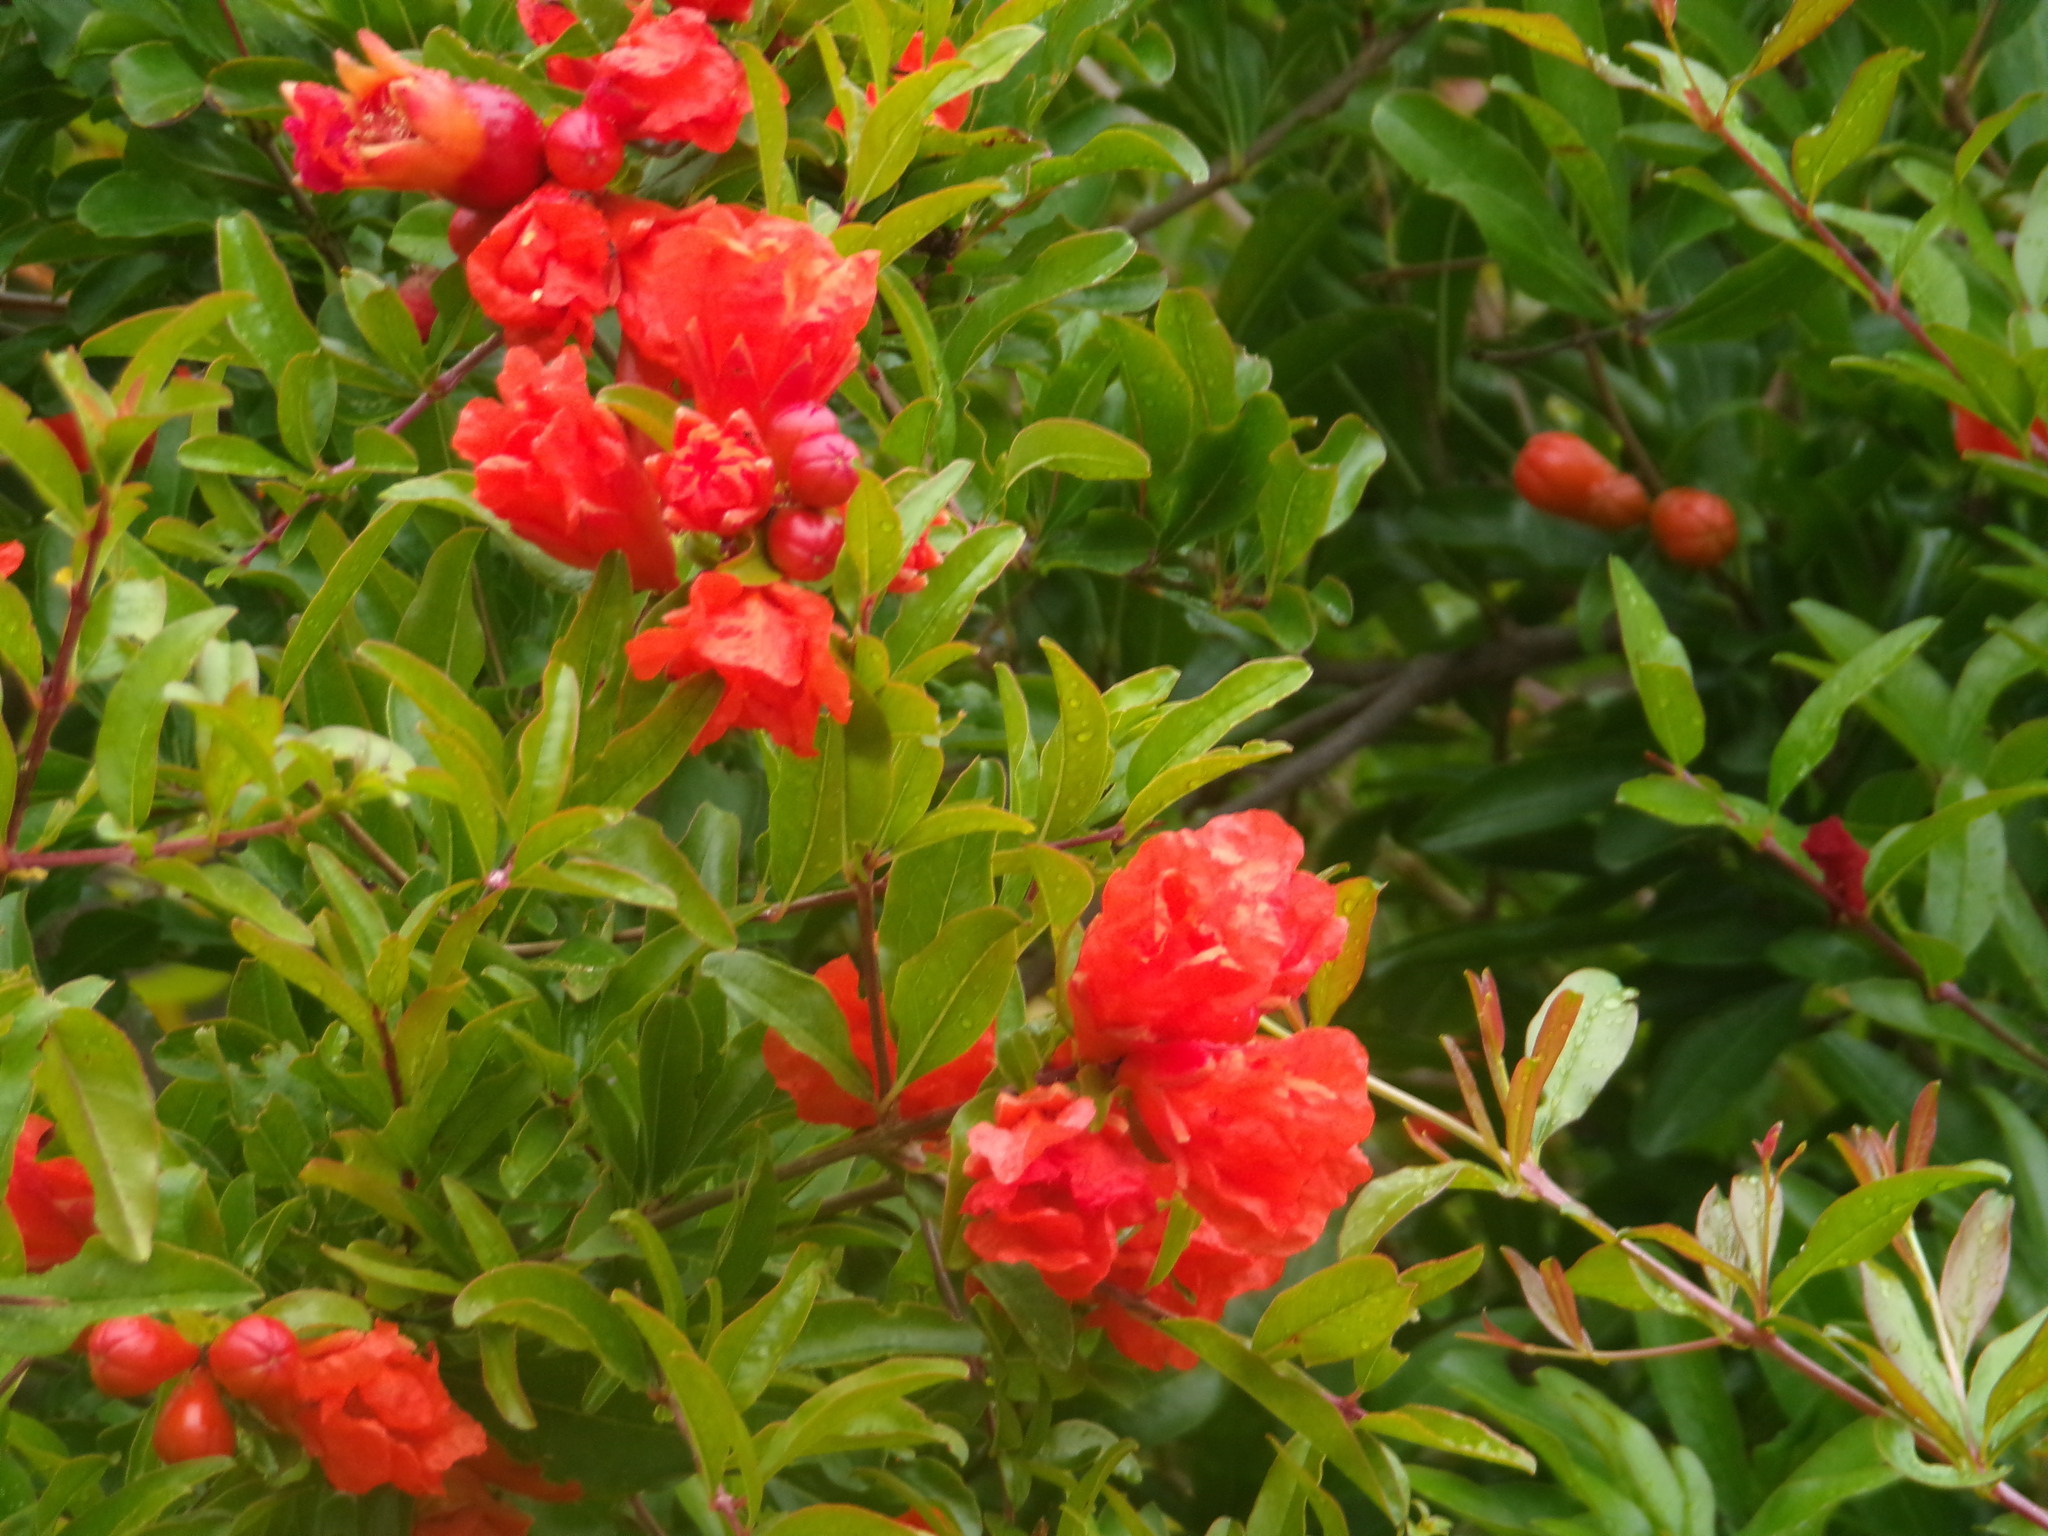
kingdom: Plantae
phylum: Tracheophyta
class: Magnoliopsida
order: Myrtales
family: Lythraceae
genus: Punica
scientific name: Punica granatum
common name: Pomegranate
